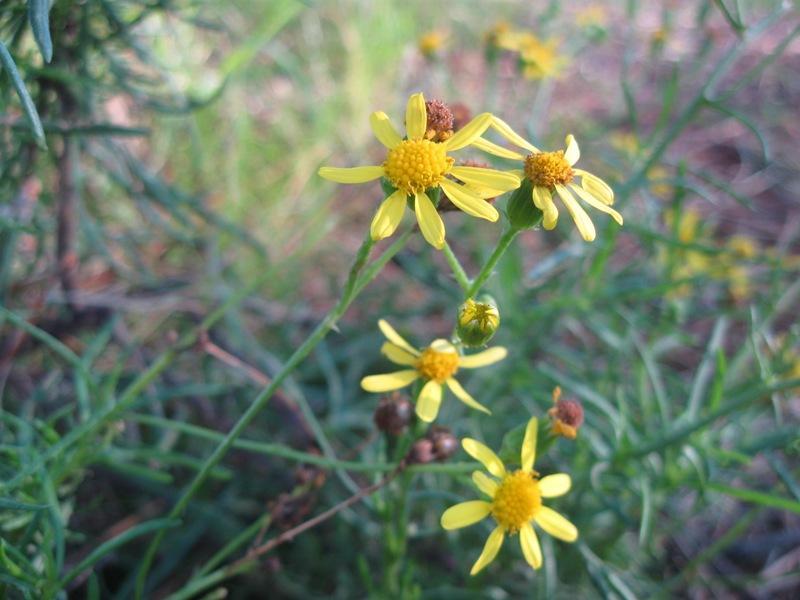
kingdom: Plantae
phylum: Tracheophyta
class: Magnoliopsida
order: Asterales
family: Asteraceae
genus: Senecio
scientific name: Senecio burchellii
